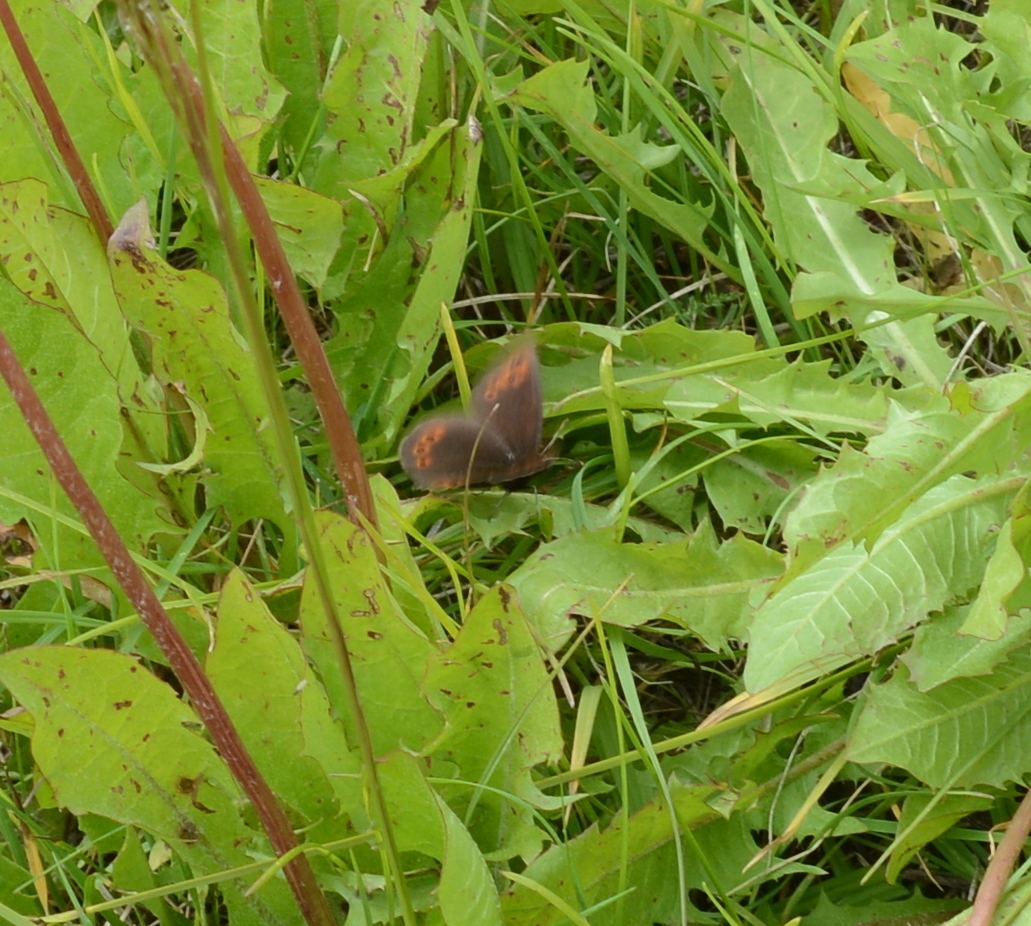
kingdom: Animalia
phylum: Arthropoda
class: Insecta
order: Lepidoptera
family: Nymphalidae
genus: Erebia
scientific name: Erebia epipsodea
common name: Common alpine
